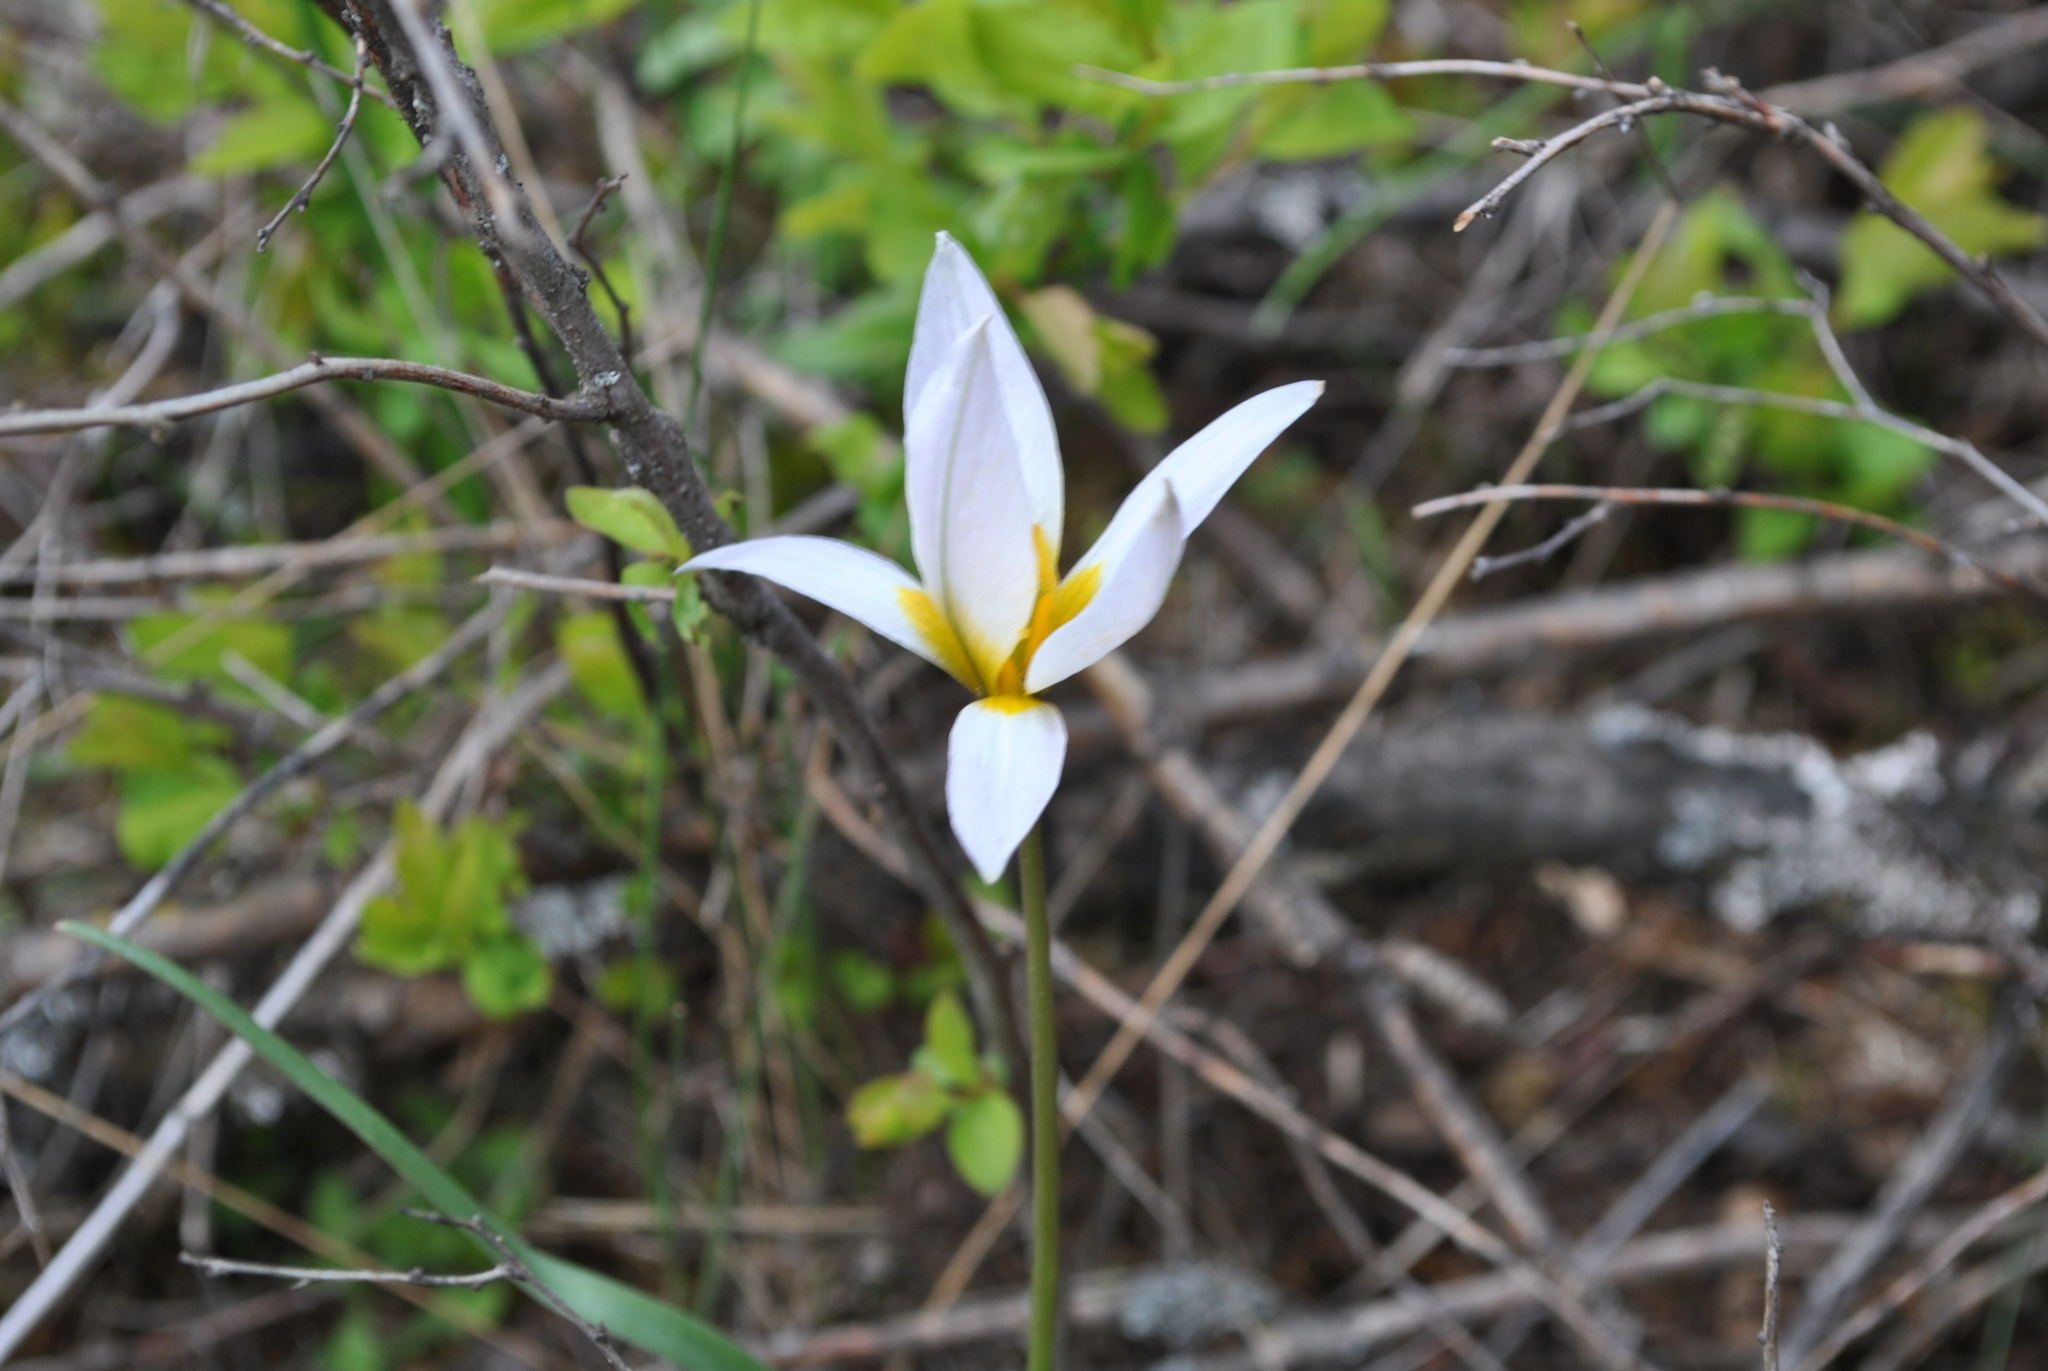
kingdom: Plantae
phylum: Tracheophyta
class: Liliopsida
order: Liliales
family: Liliaceae
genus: Tulipa
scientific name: Tulipa patens
